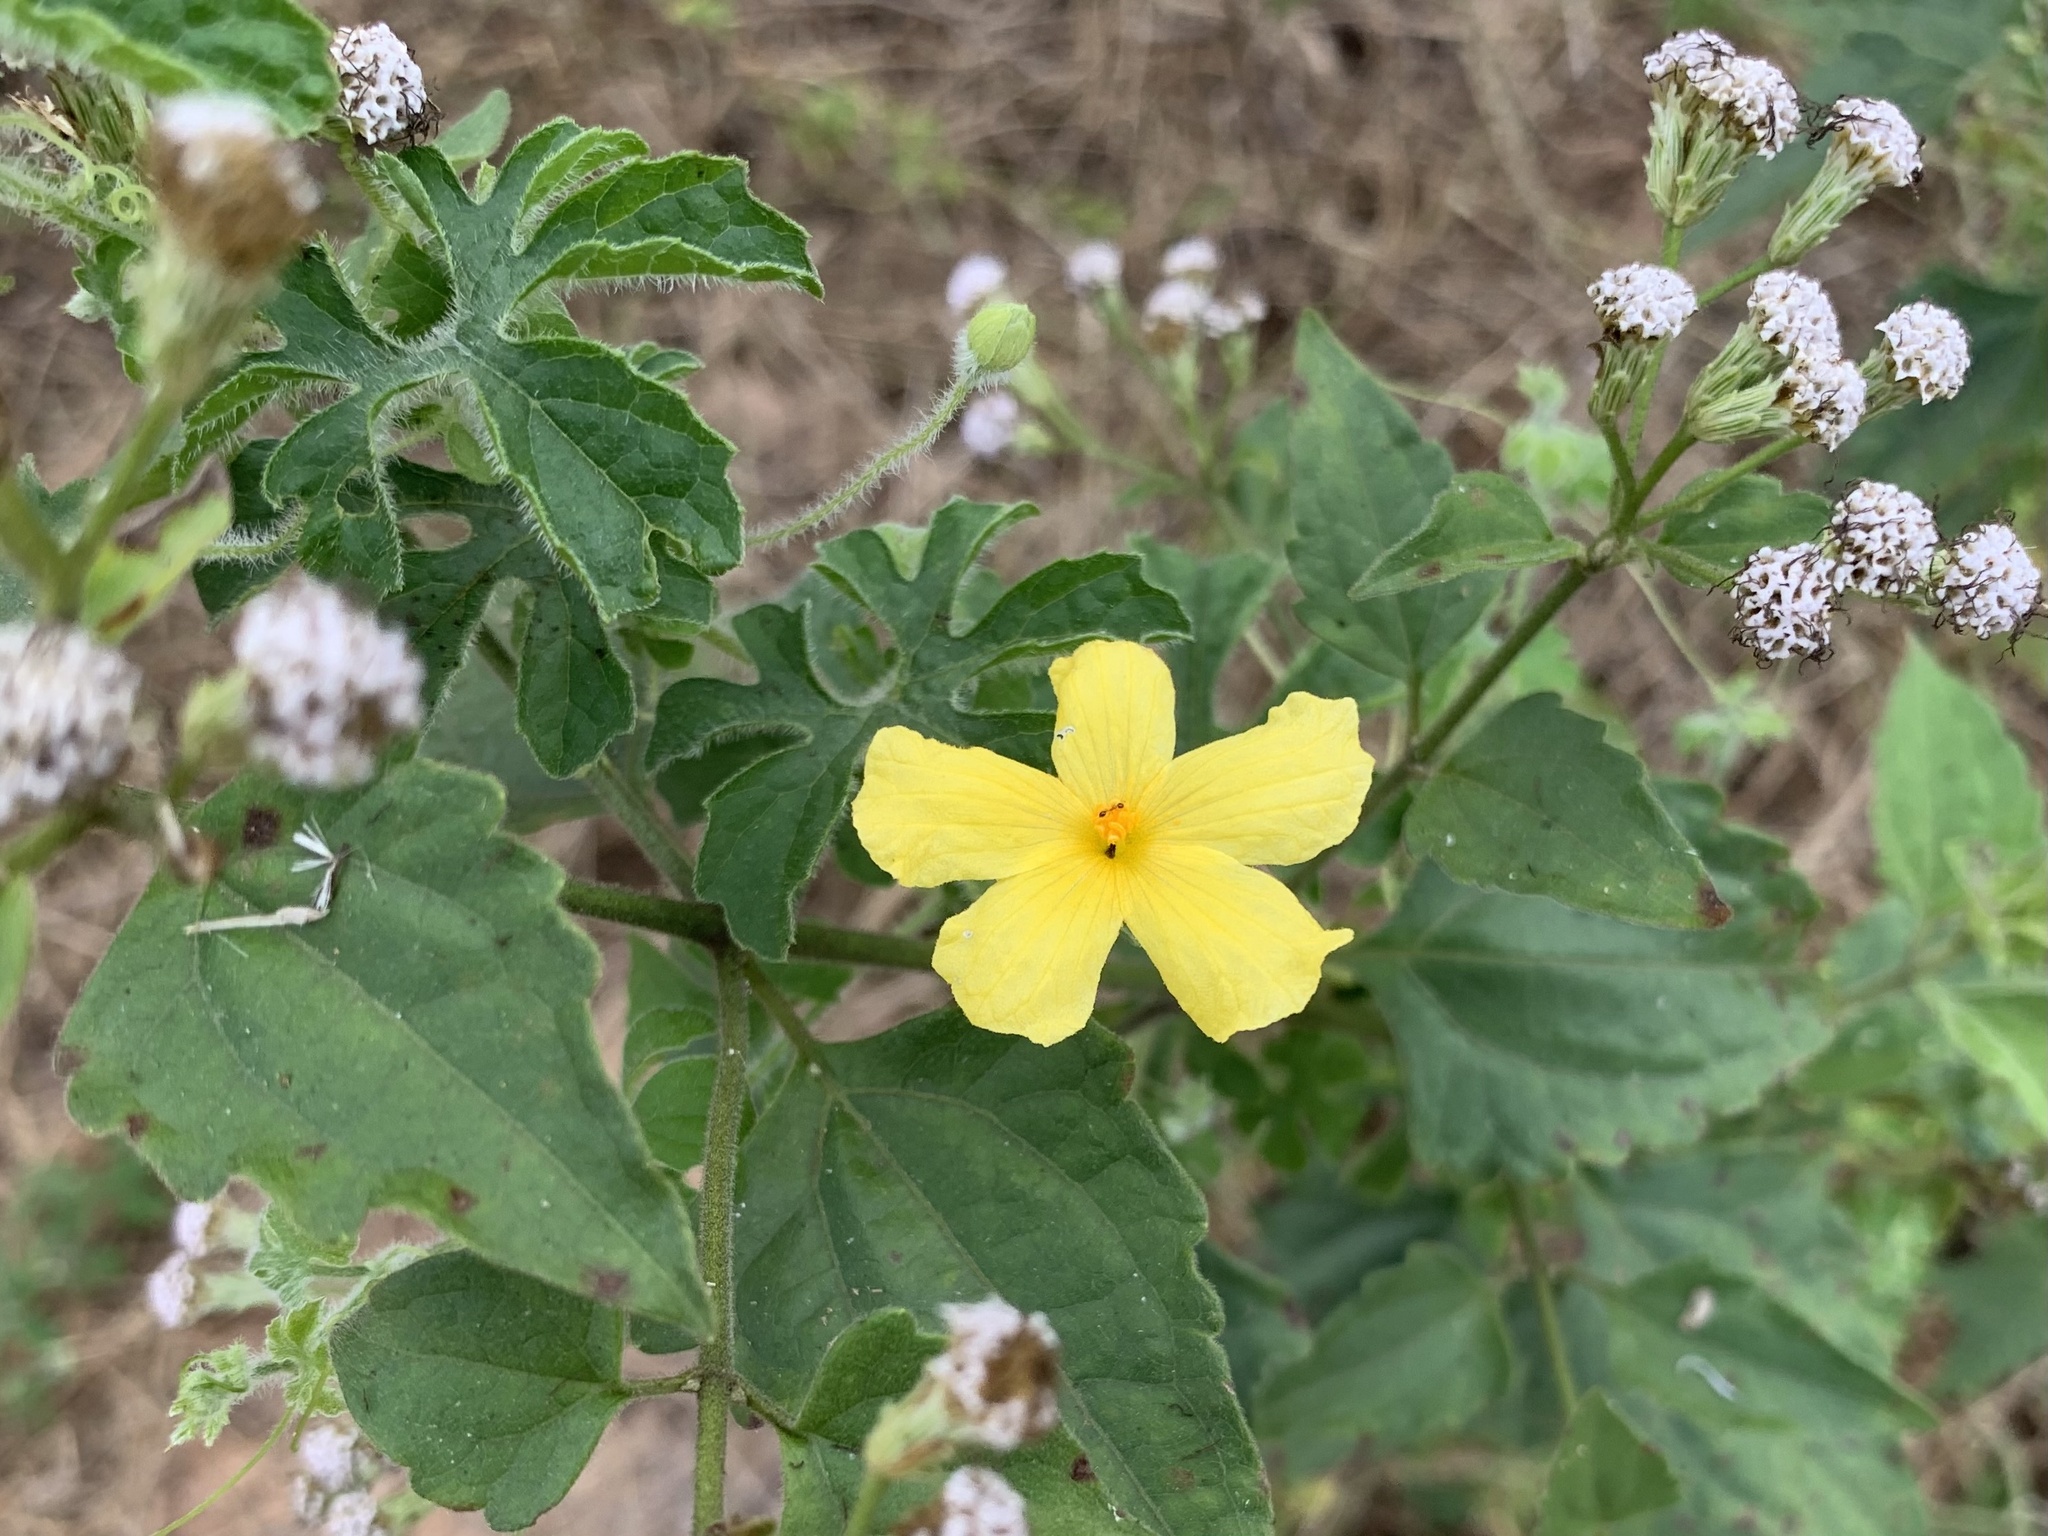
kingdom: Plantae
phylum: Tracheophyta
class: Magnoliopsida
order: Cucurbitales
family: Cucurbitaceae
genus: Momordica
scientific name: Momordica charantia
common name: Balsampear
